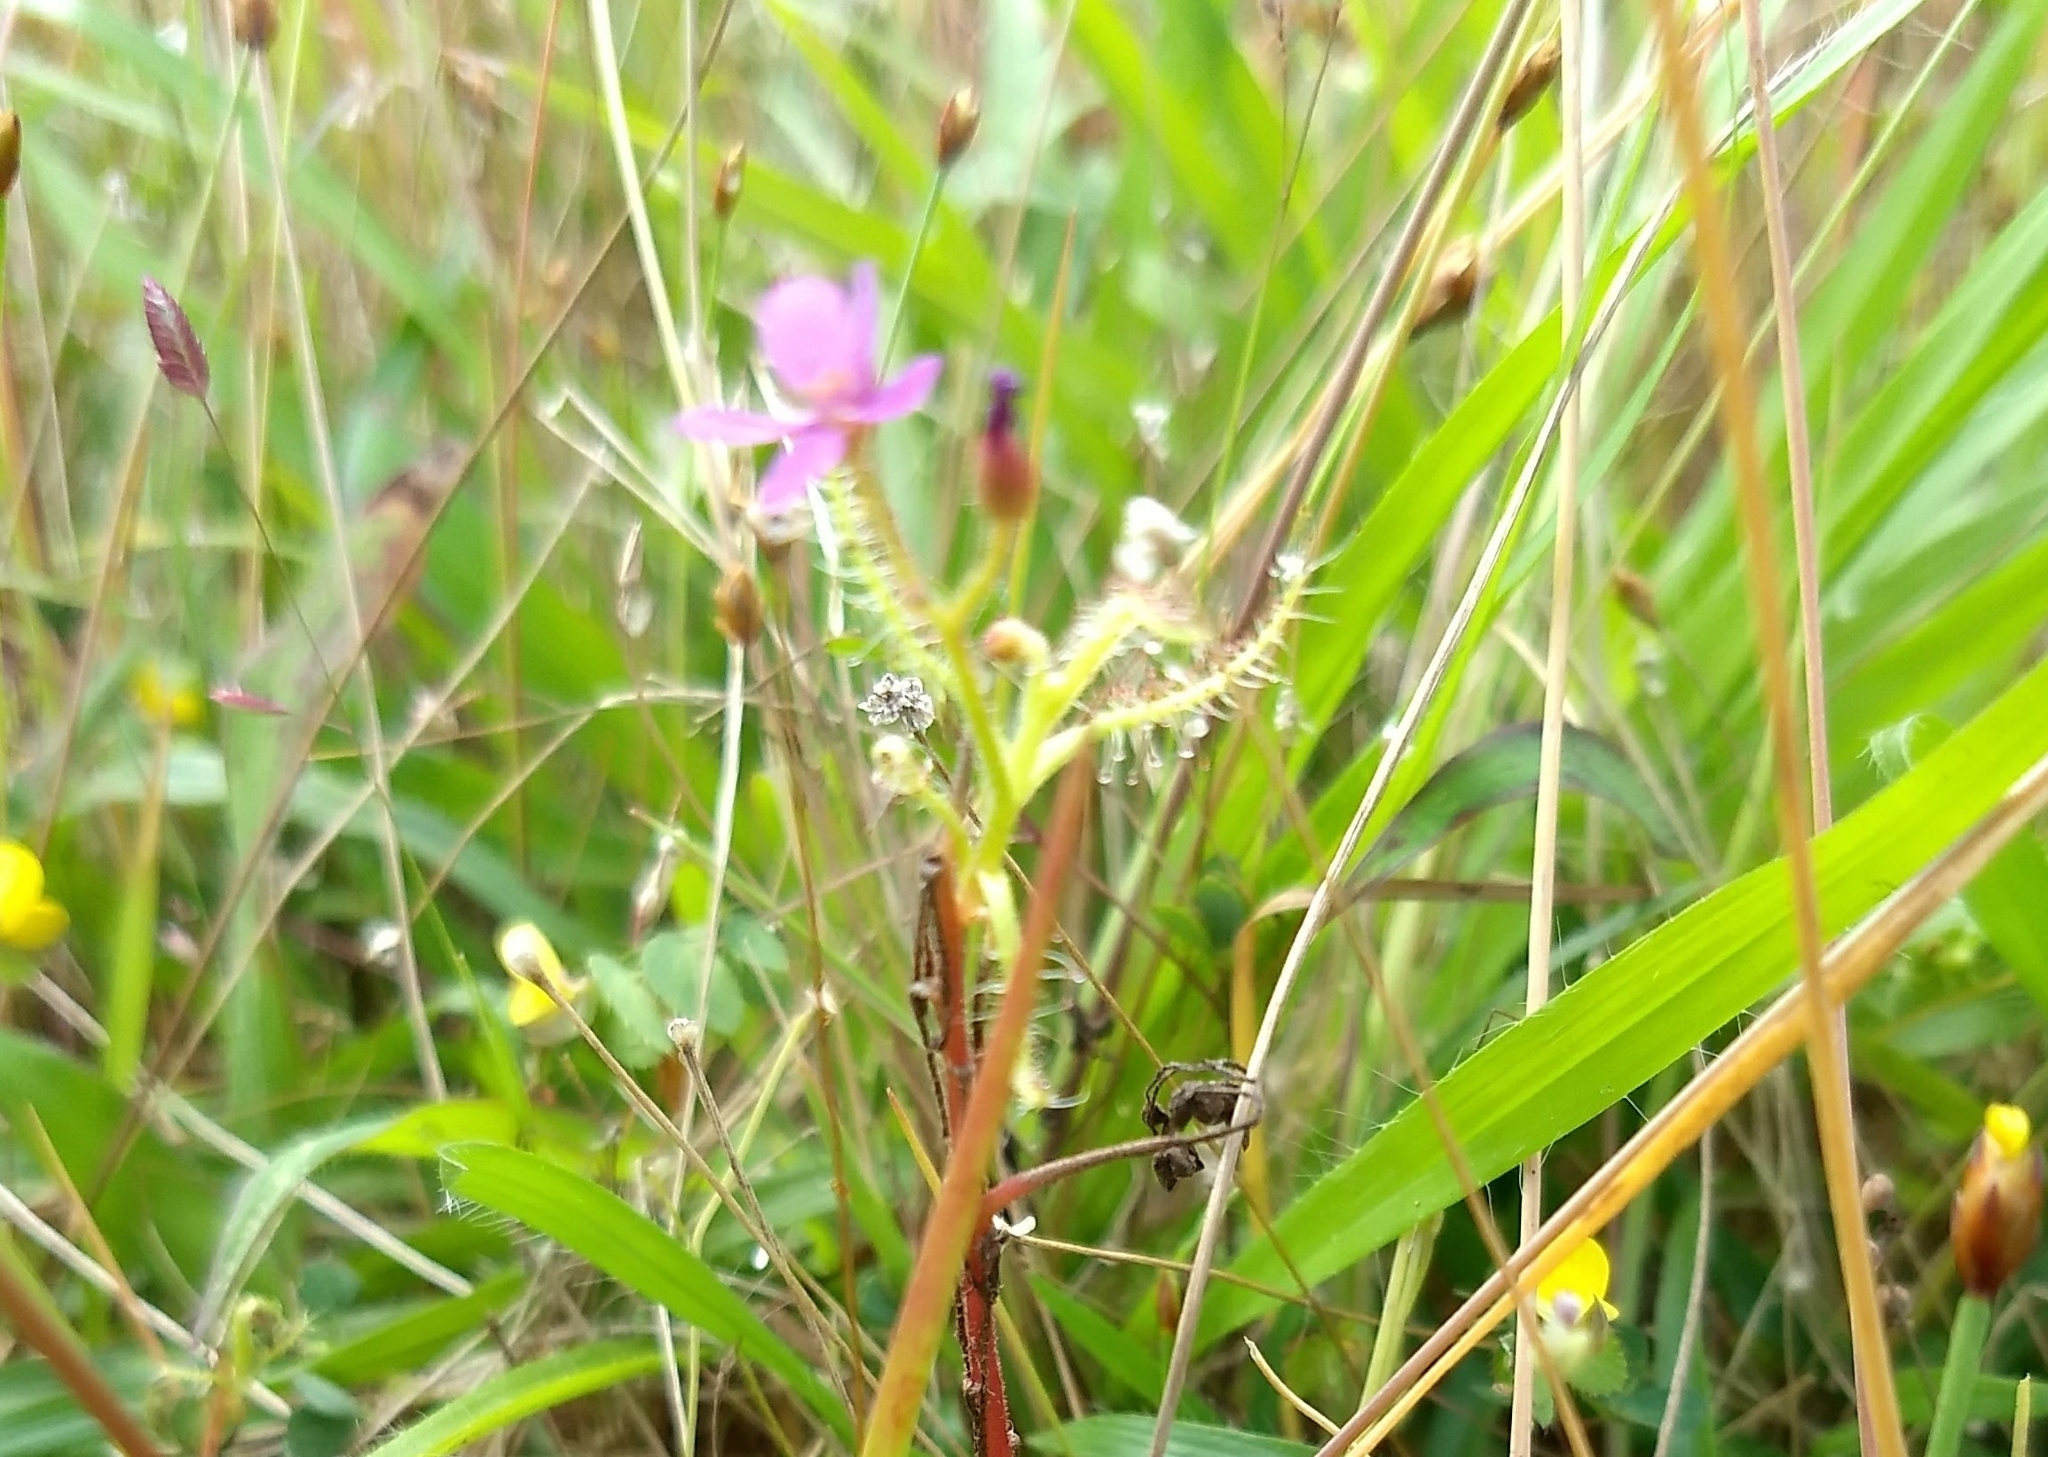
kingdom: Plantae
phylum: Tracheophyta
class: Magnoliopsida
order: Caryophyllales
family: Droseraceae
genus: Drosera
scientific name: Drosera indica
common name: Indian sundew
